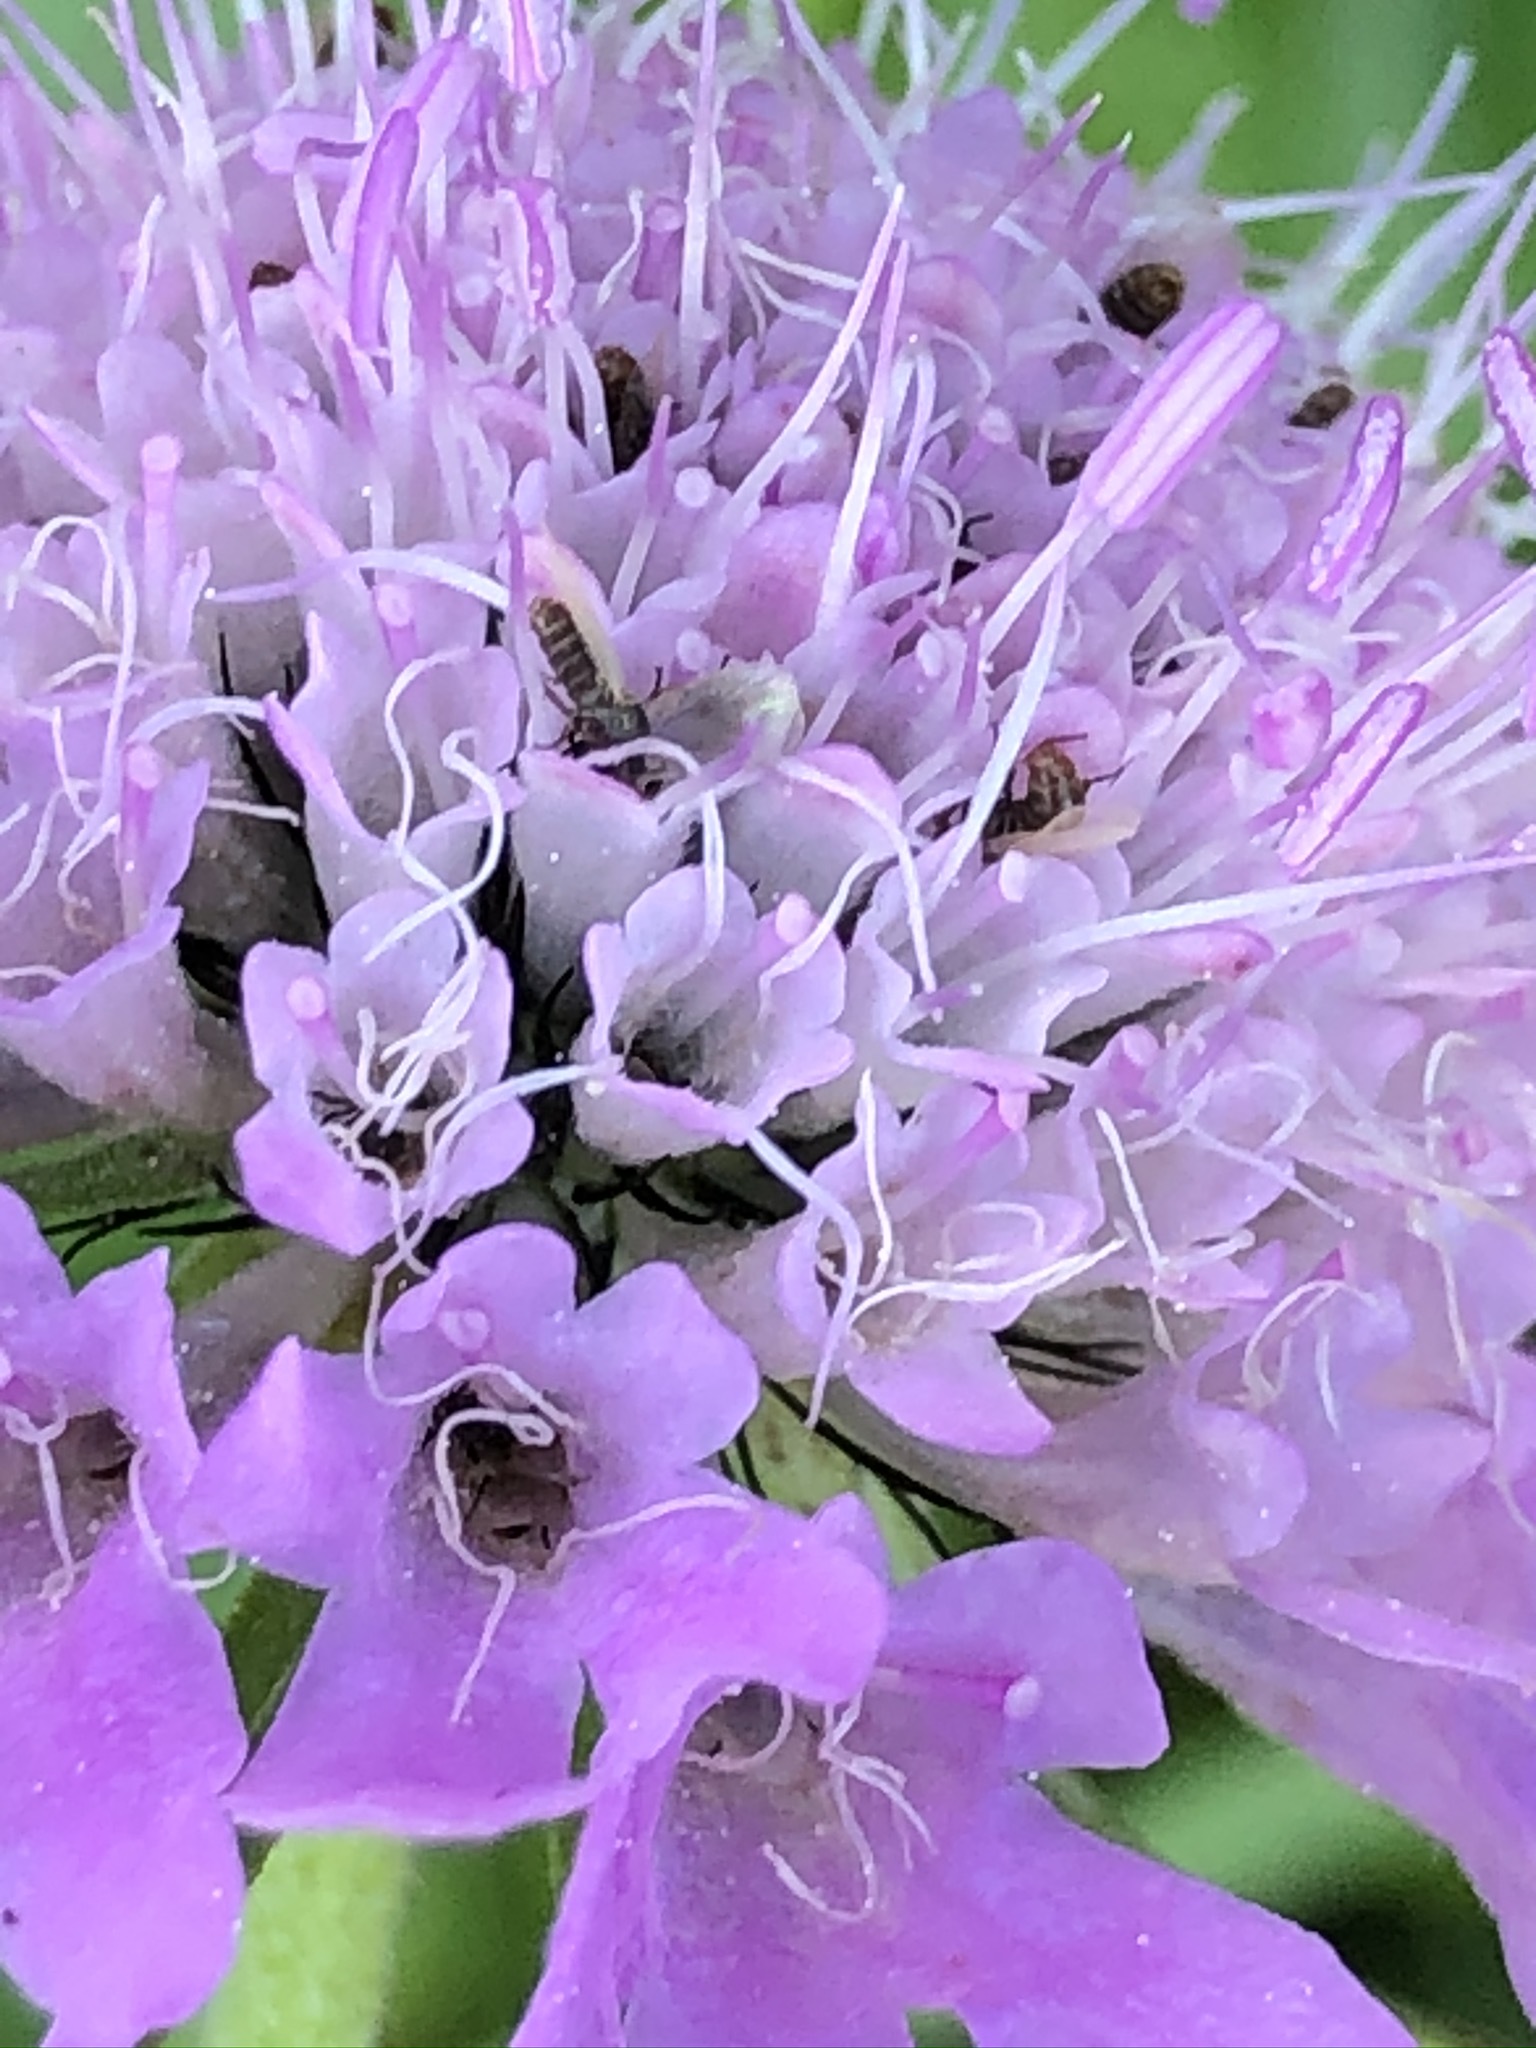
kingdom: Plantae
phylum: Tracheophyta
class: Magnoliopsida
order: Dipsacales
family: Caprifoliaceae
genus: Scabiosa
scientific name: Scabiosa lucida
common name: Shining scabious
